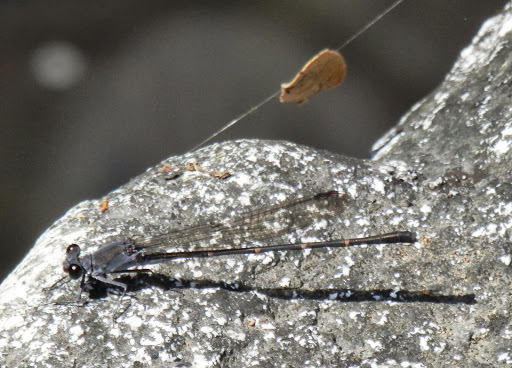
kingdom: Animalia
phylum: Arthropoda
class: Insecta
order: Odonata
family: Coenagrionidae
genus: Argia
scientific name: Argia lugens
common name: Sooty dancer
